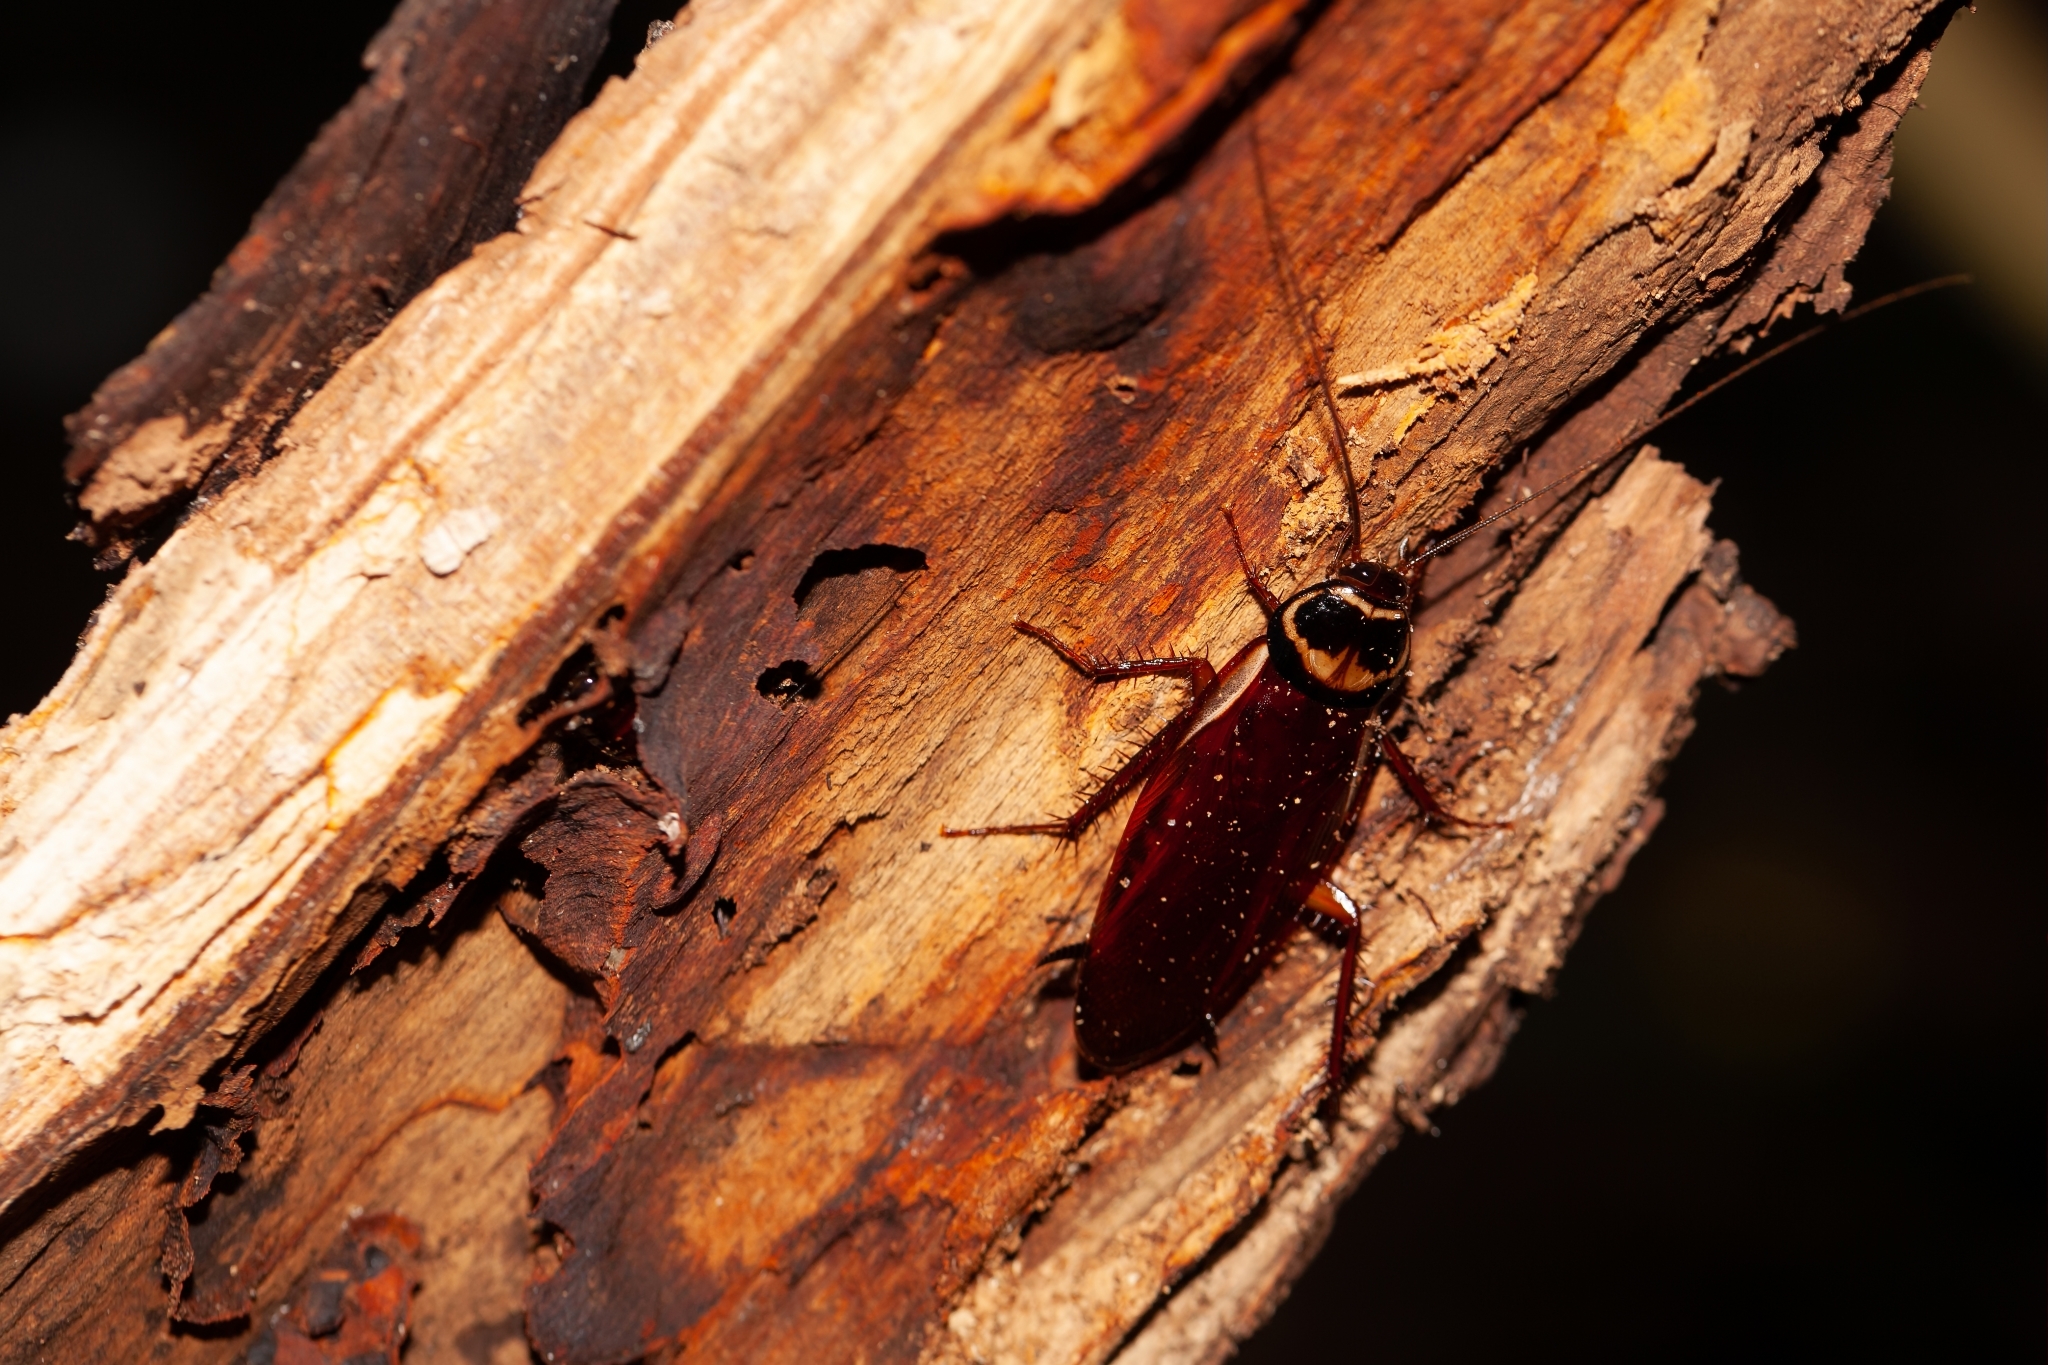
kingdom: Animalia
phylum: Arthropoda
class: Insecta
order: Blattodea
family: Blattidae
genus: Periplaneta
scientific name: Periplaneta australasiae
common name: Australian cockroach
